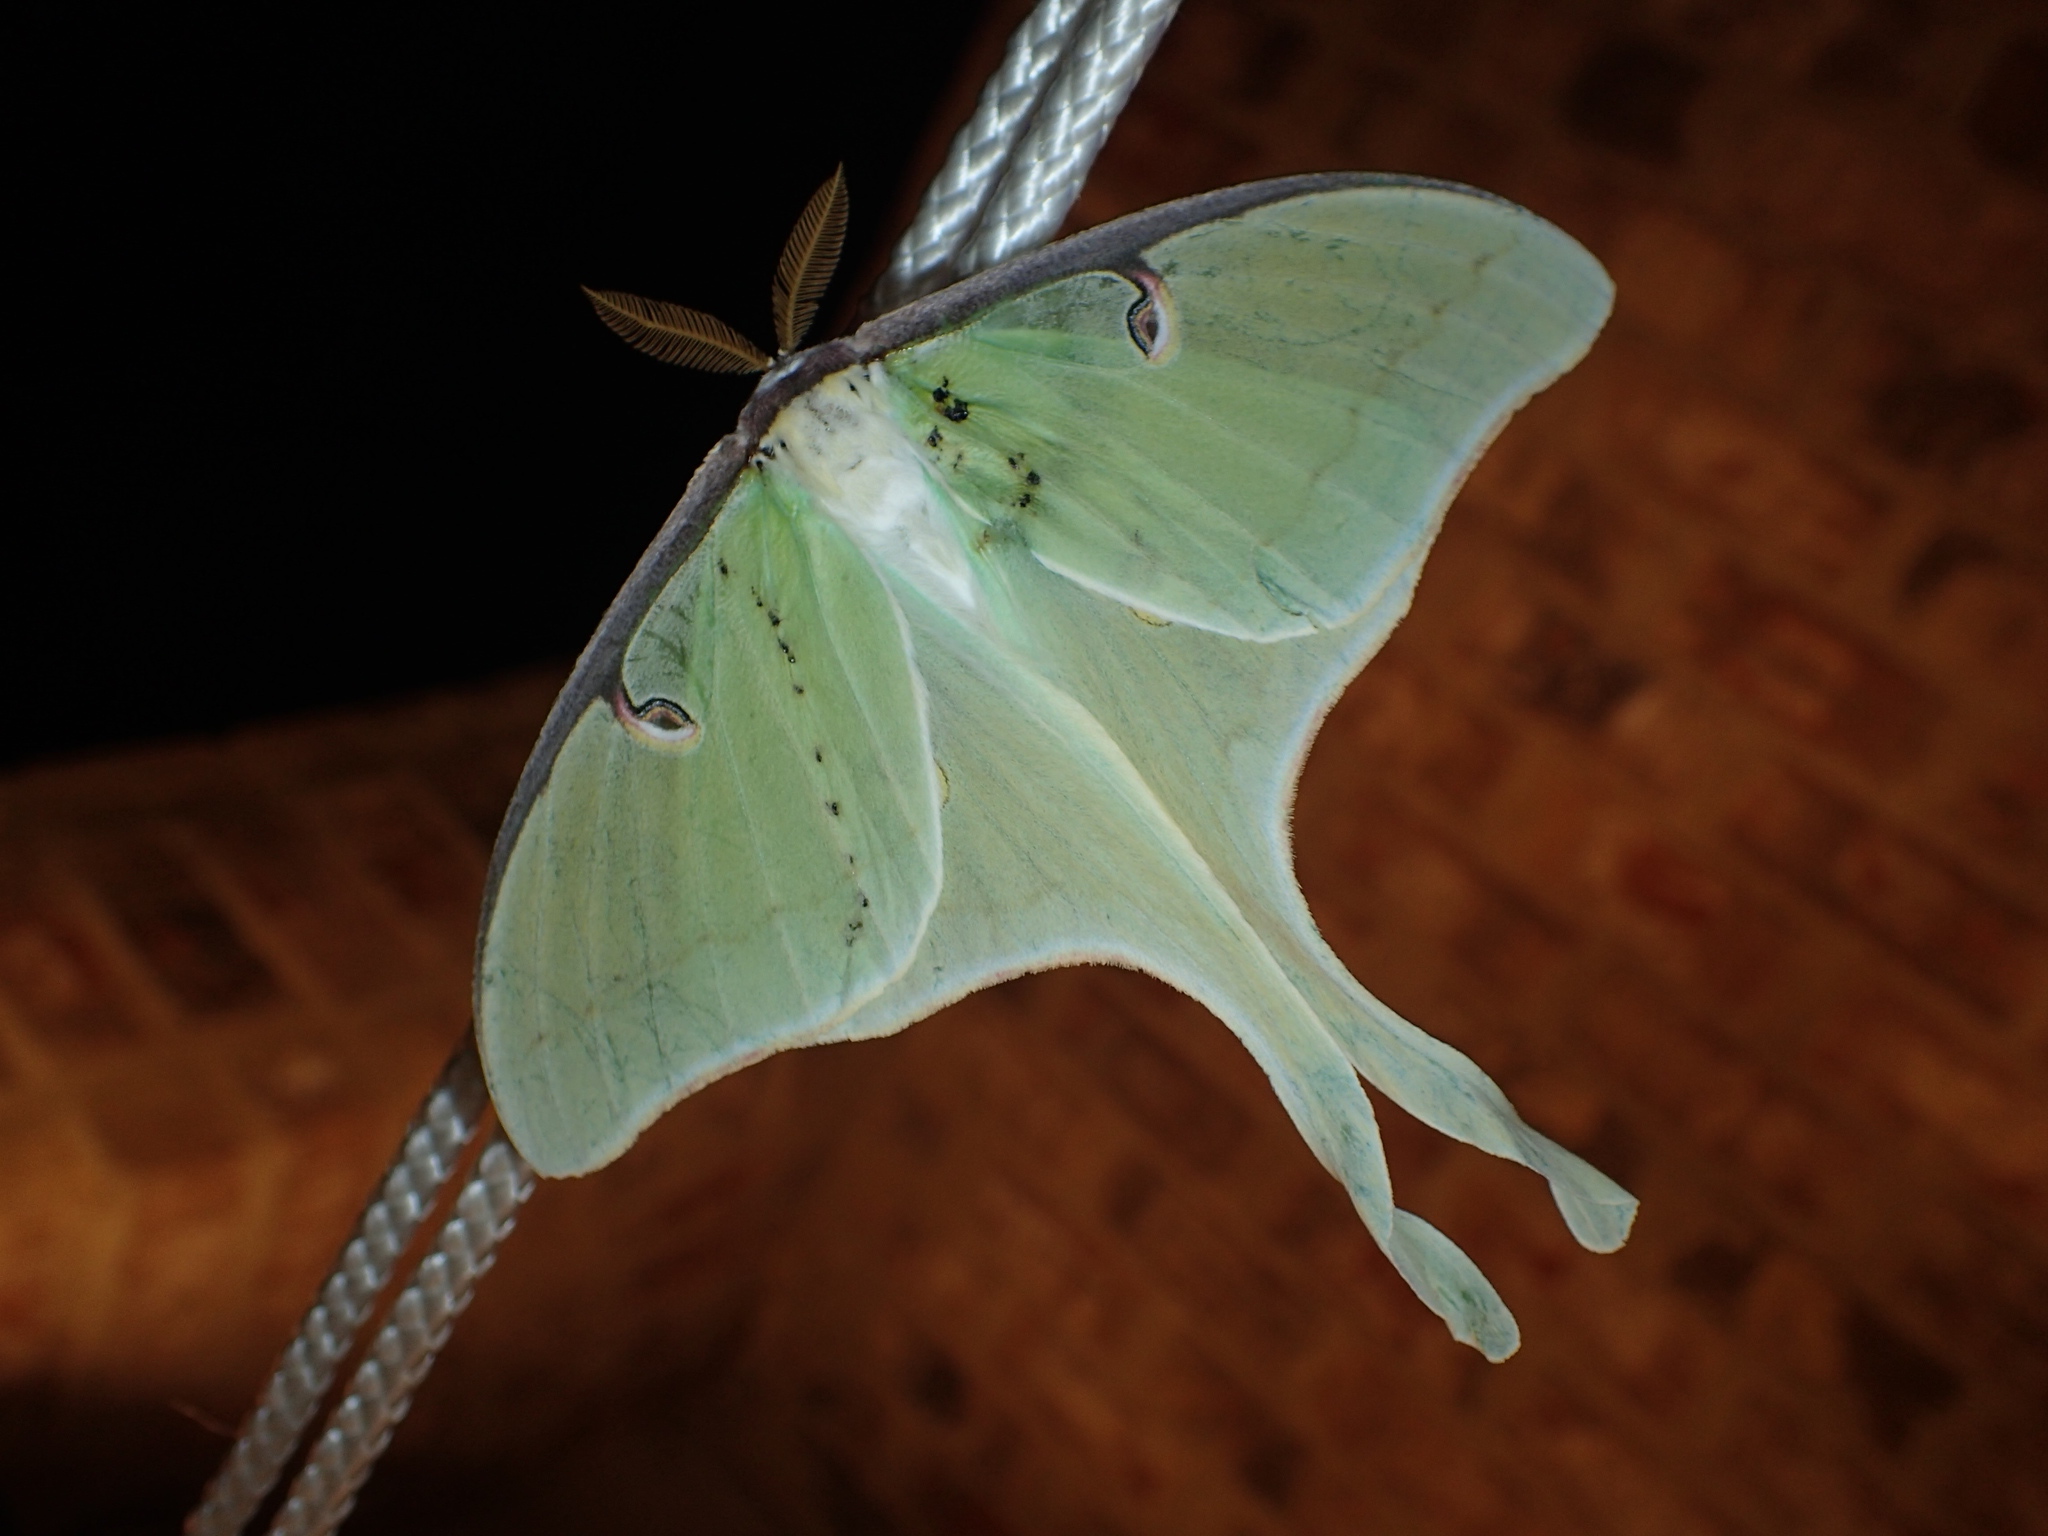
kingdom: Animalia
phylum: Arthropoda
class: Insecta
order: Lepidoptera
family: Saturniidae
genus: Actias
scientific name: Actias luna
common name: Luna moth
